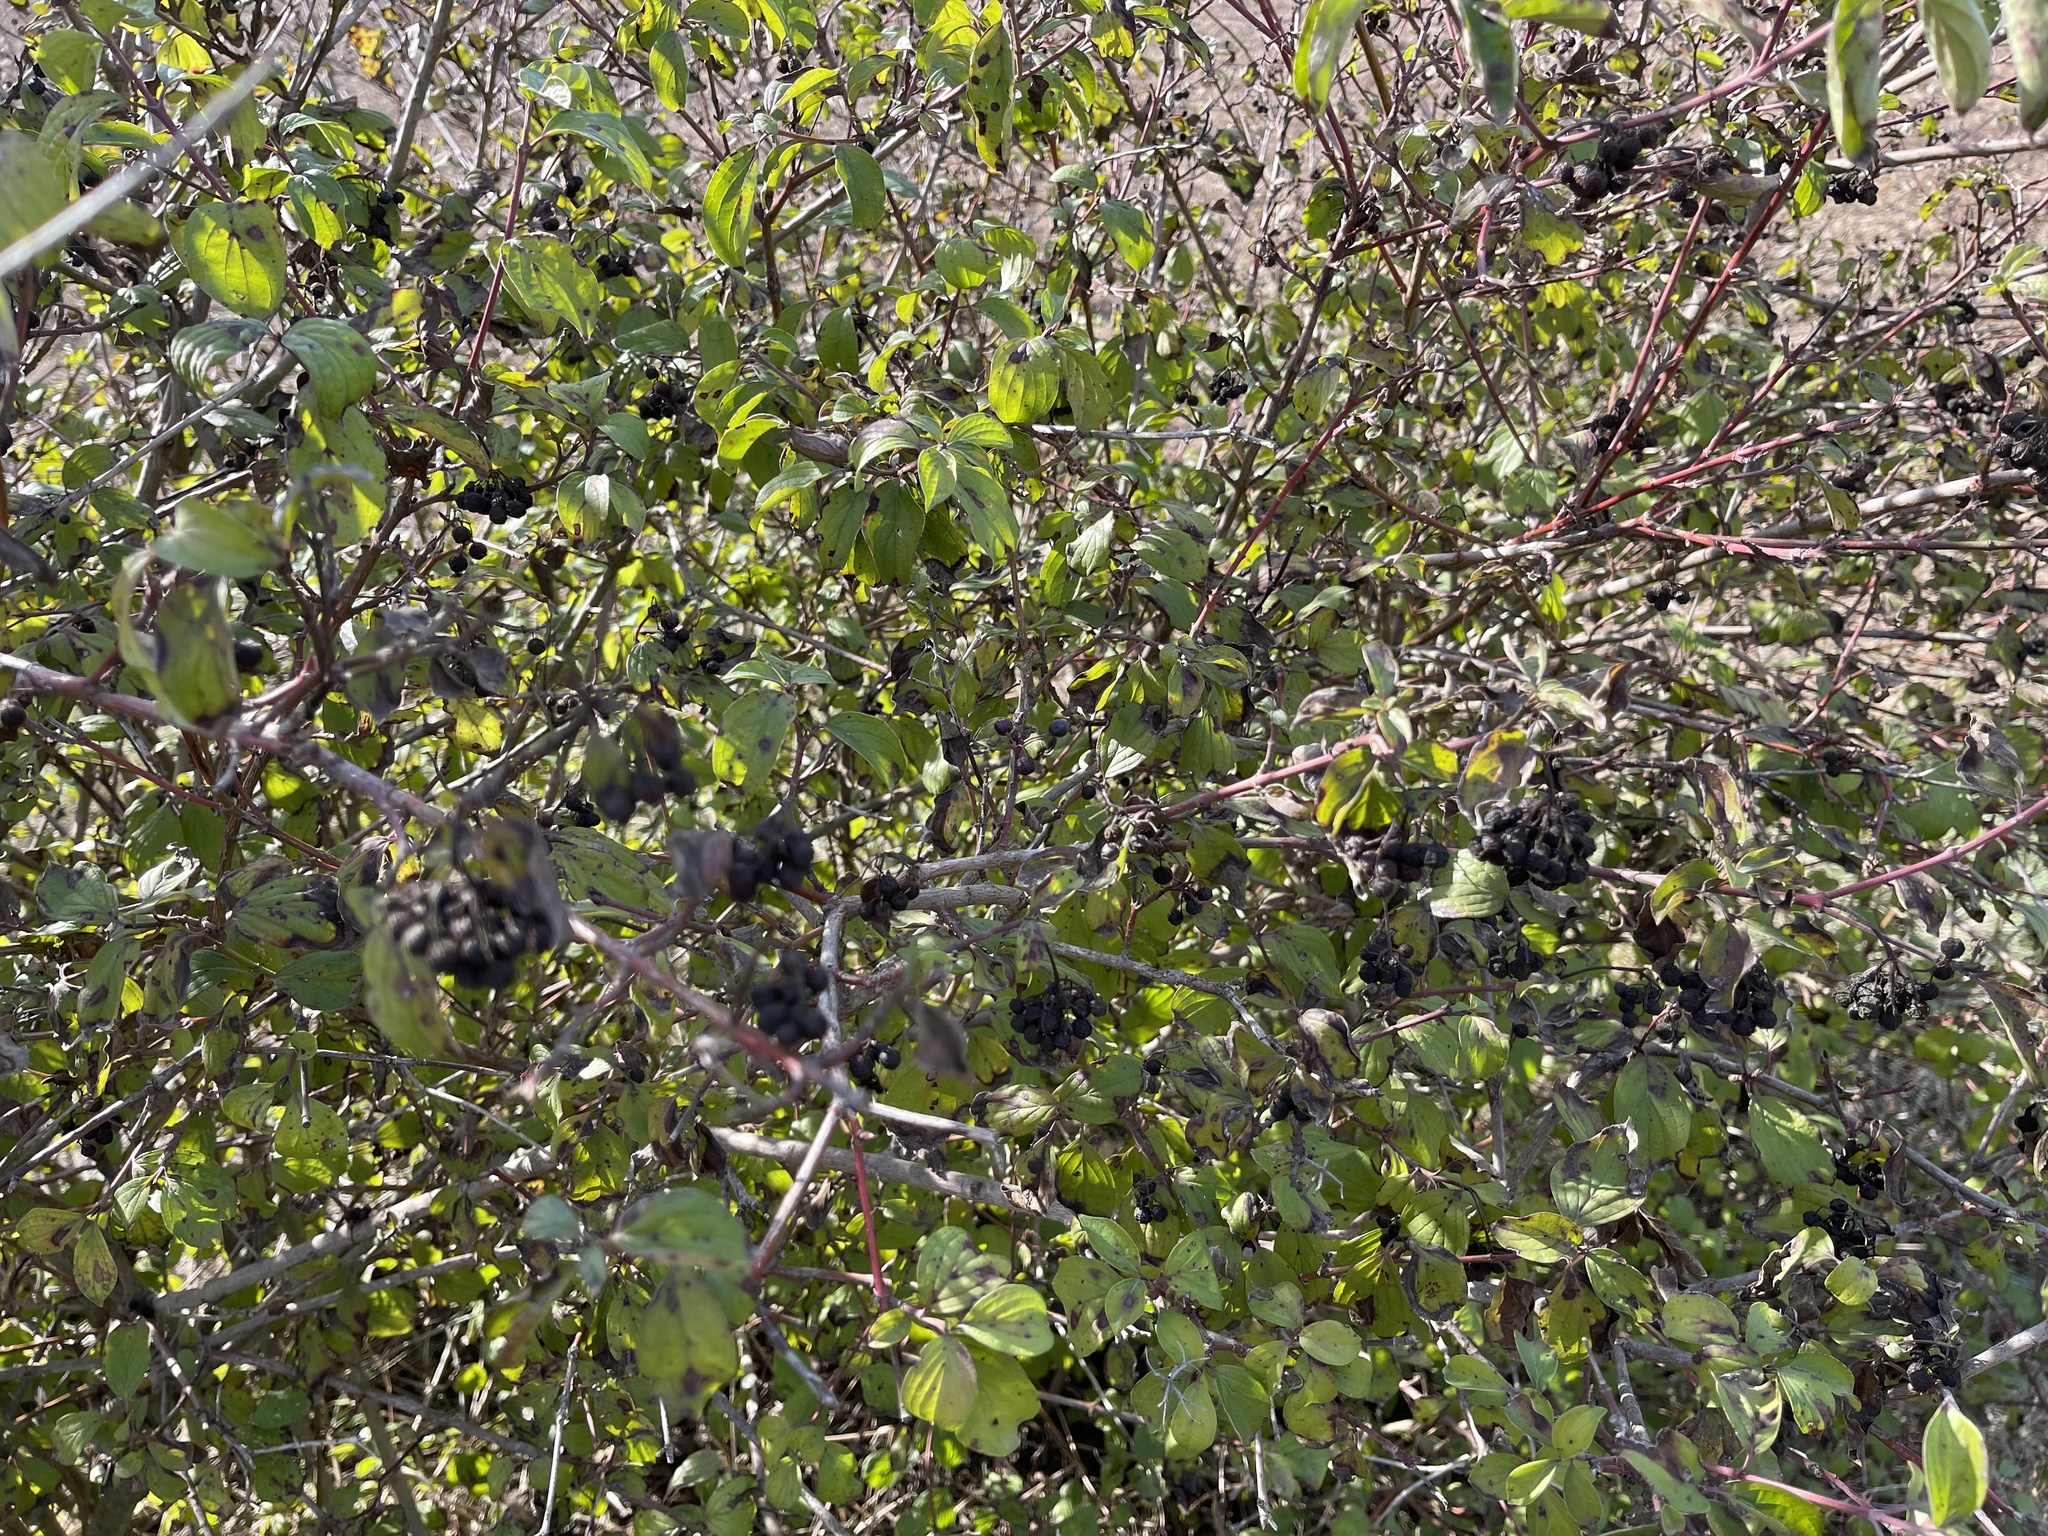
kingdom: Plantae
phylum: Tracheophyta
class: Magnoliopsida
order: Cornales
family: Cornaceae
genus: Cornus
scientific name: Cornus sanguinea
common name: Dogwood
